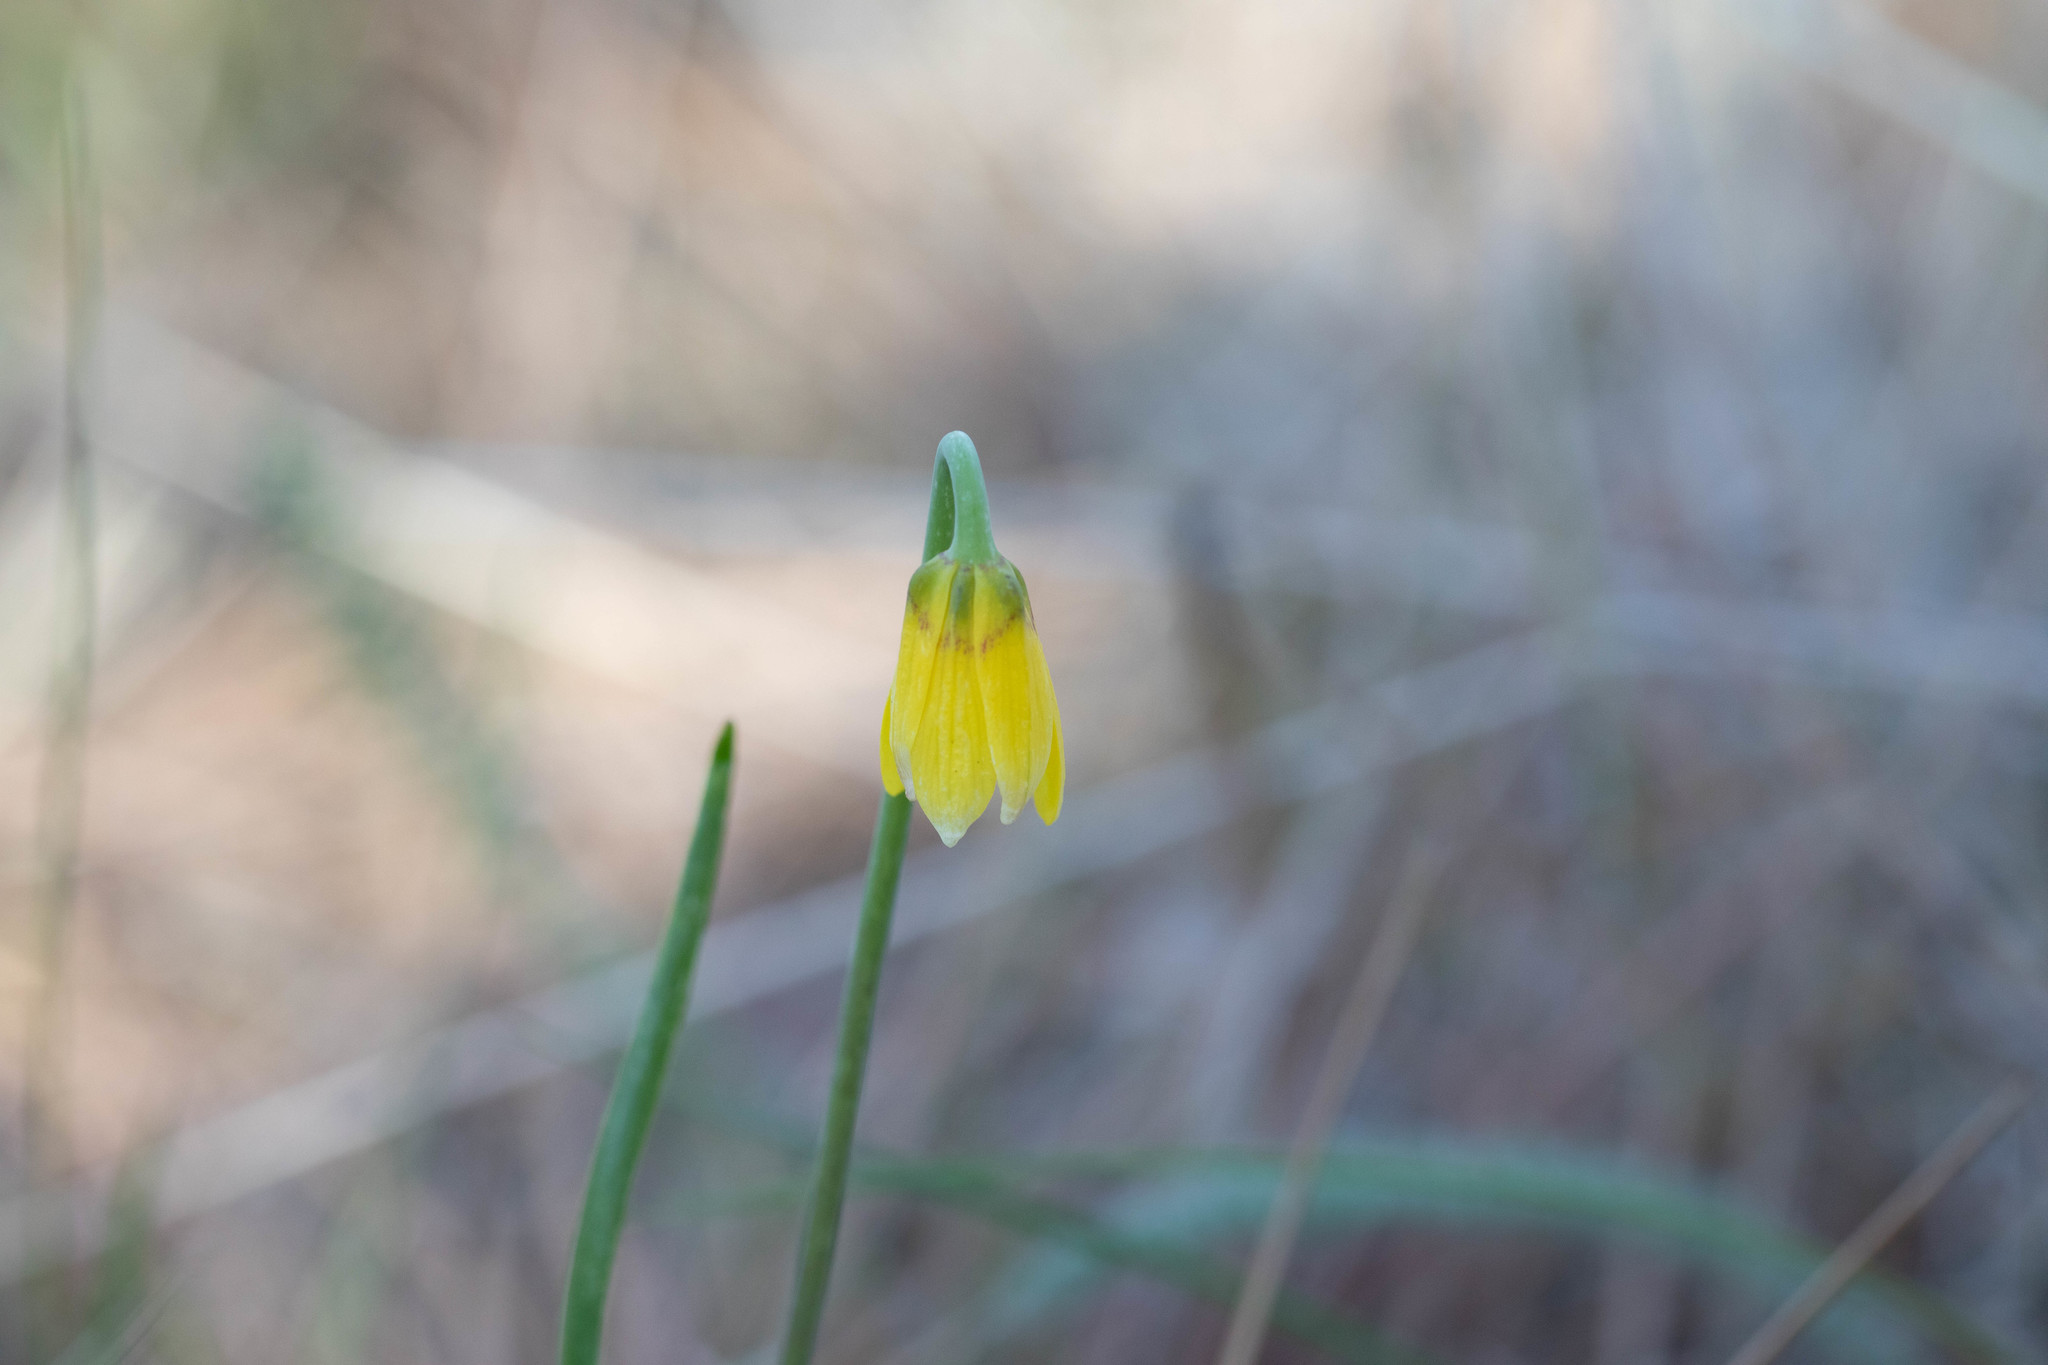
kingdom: Plantae
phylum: Tracheophyta
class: Liliopsida
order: Liliales
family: Liliaceae
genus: Fritillaria
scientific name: Fritillaria pudica
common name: Yellow fritillary
